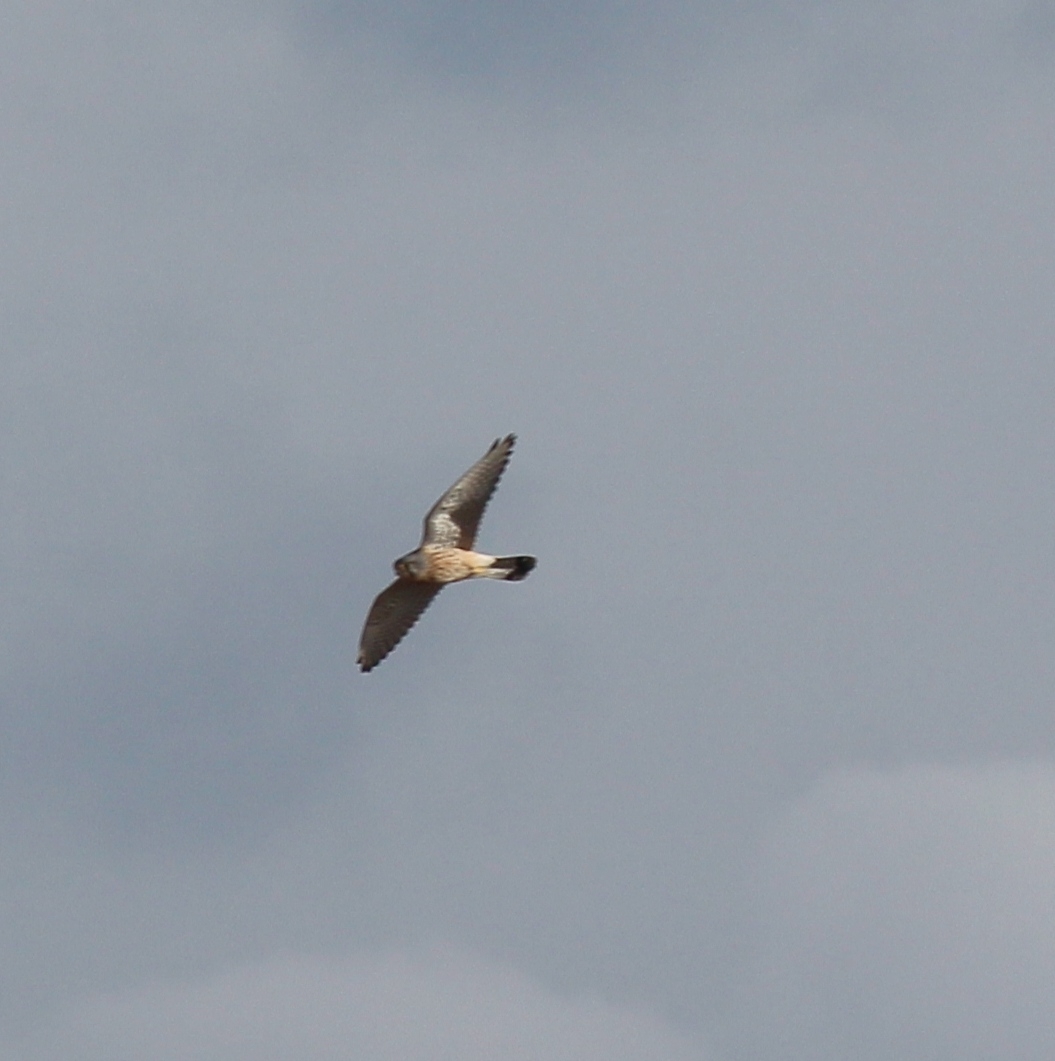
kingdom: Animalia
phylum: Chordata
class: Aves
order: Falconiformes
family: Falconidae
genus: Falco
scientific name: Falco tinnunculus
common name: Common kestrel
